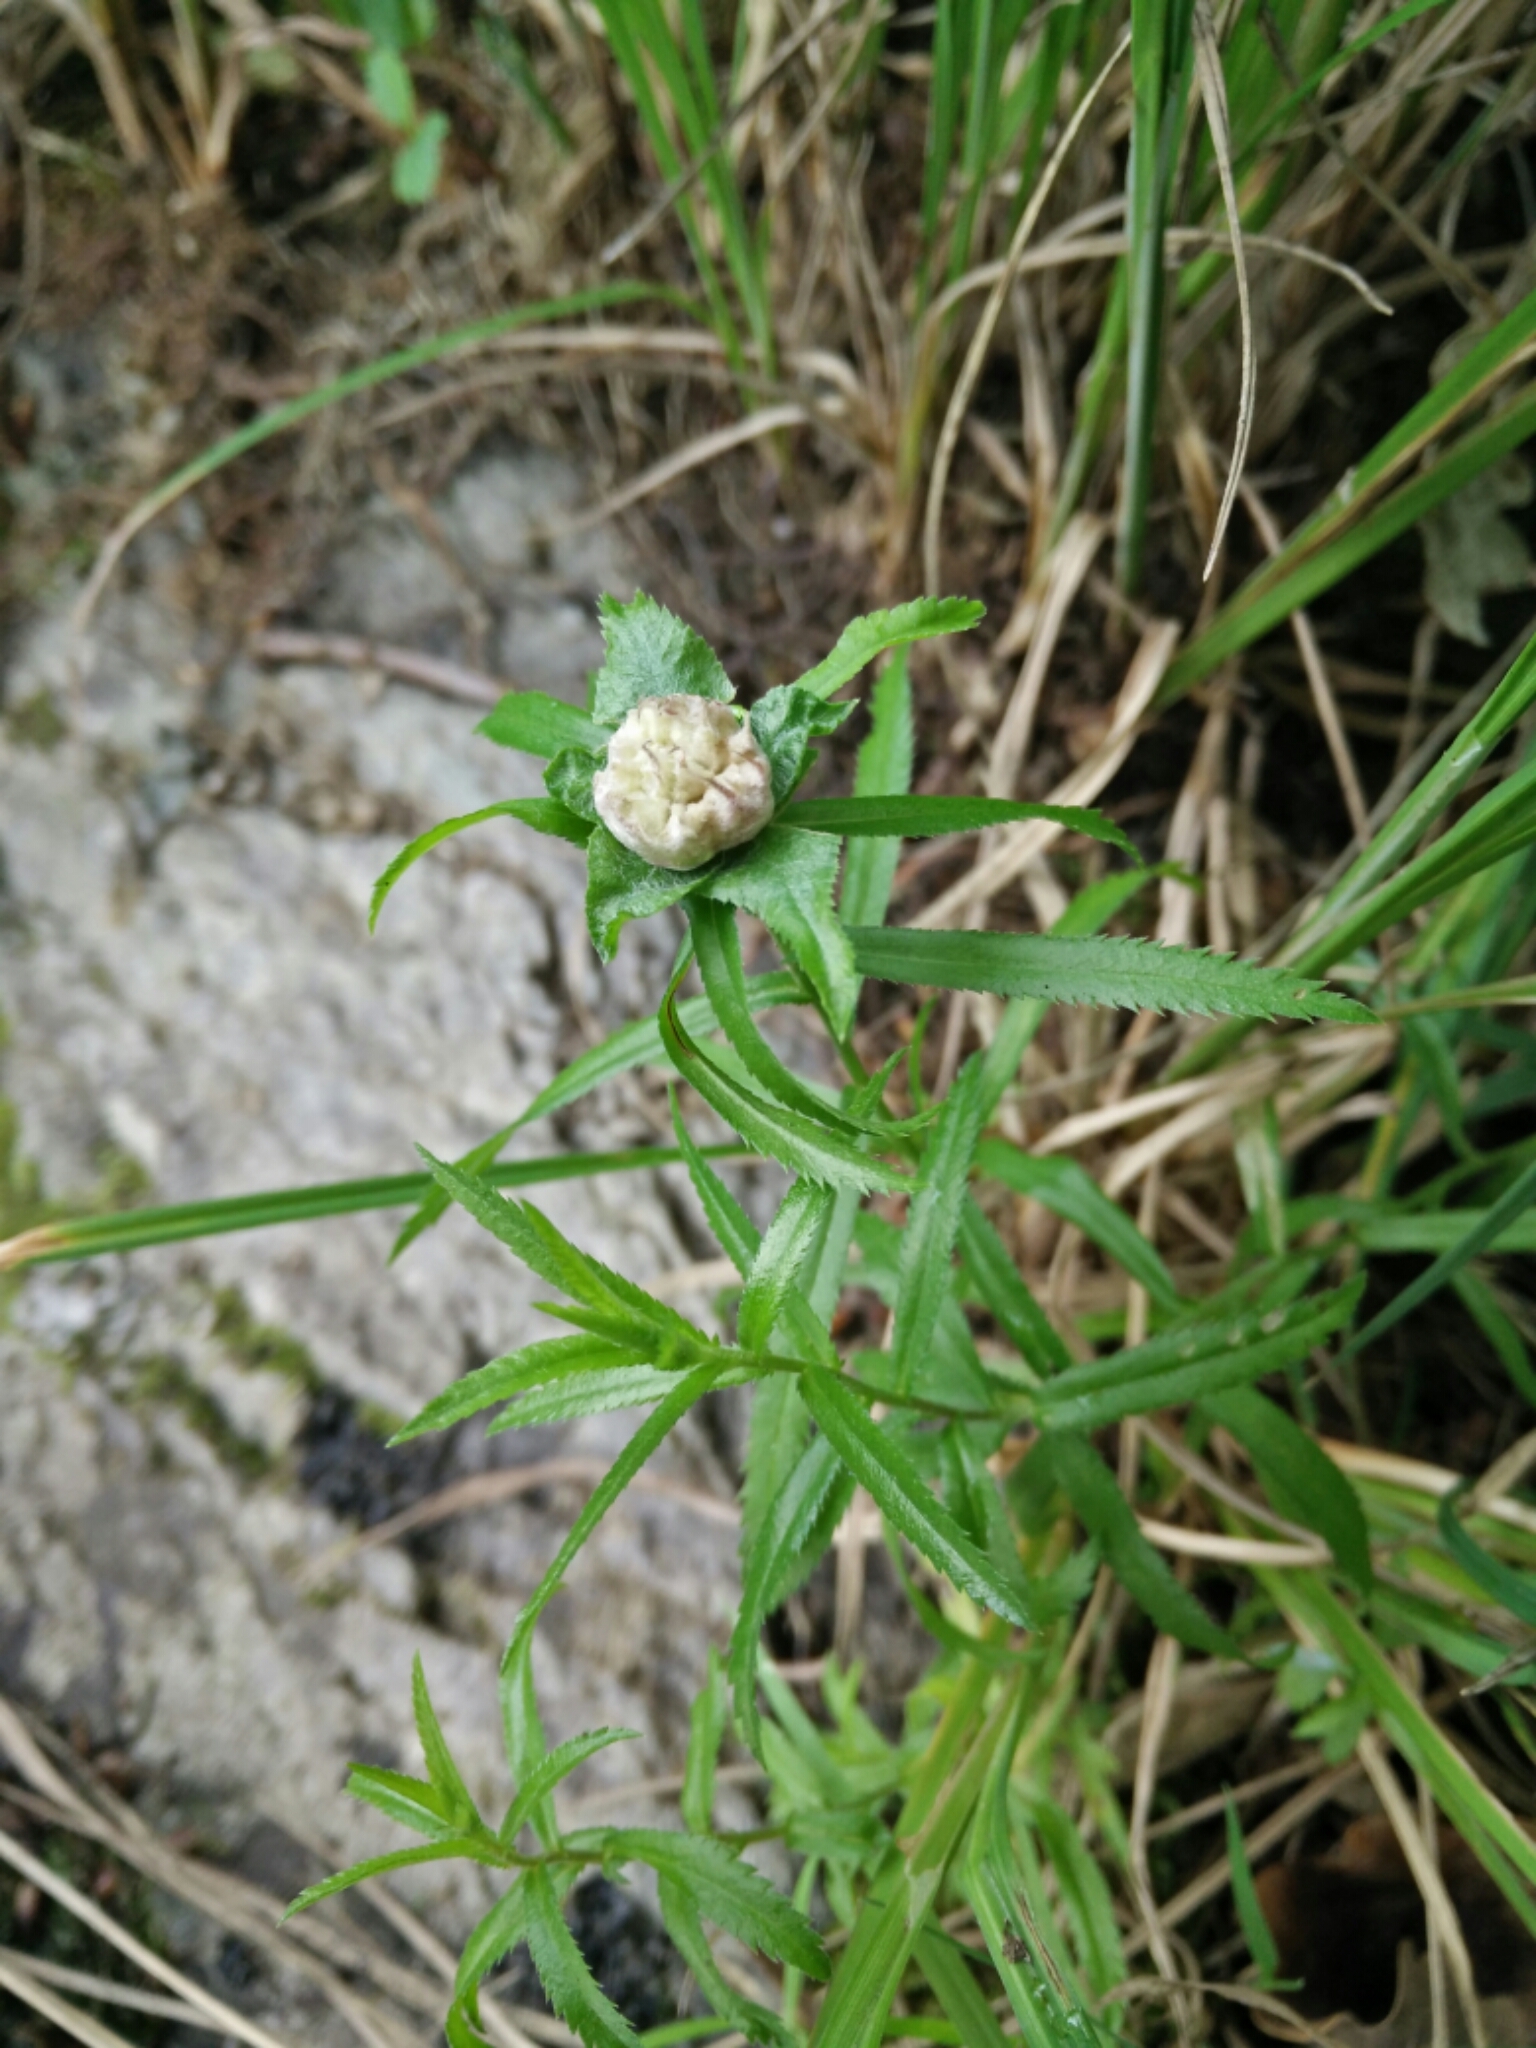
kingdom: Animalia
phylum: Arthropoda
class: Insecta
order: Diptera
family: Cecidomyiidae
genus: Rhopalomyia
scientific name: Rhopalomyia ptarmicae
